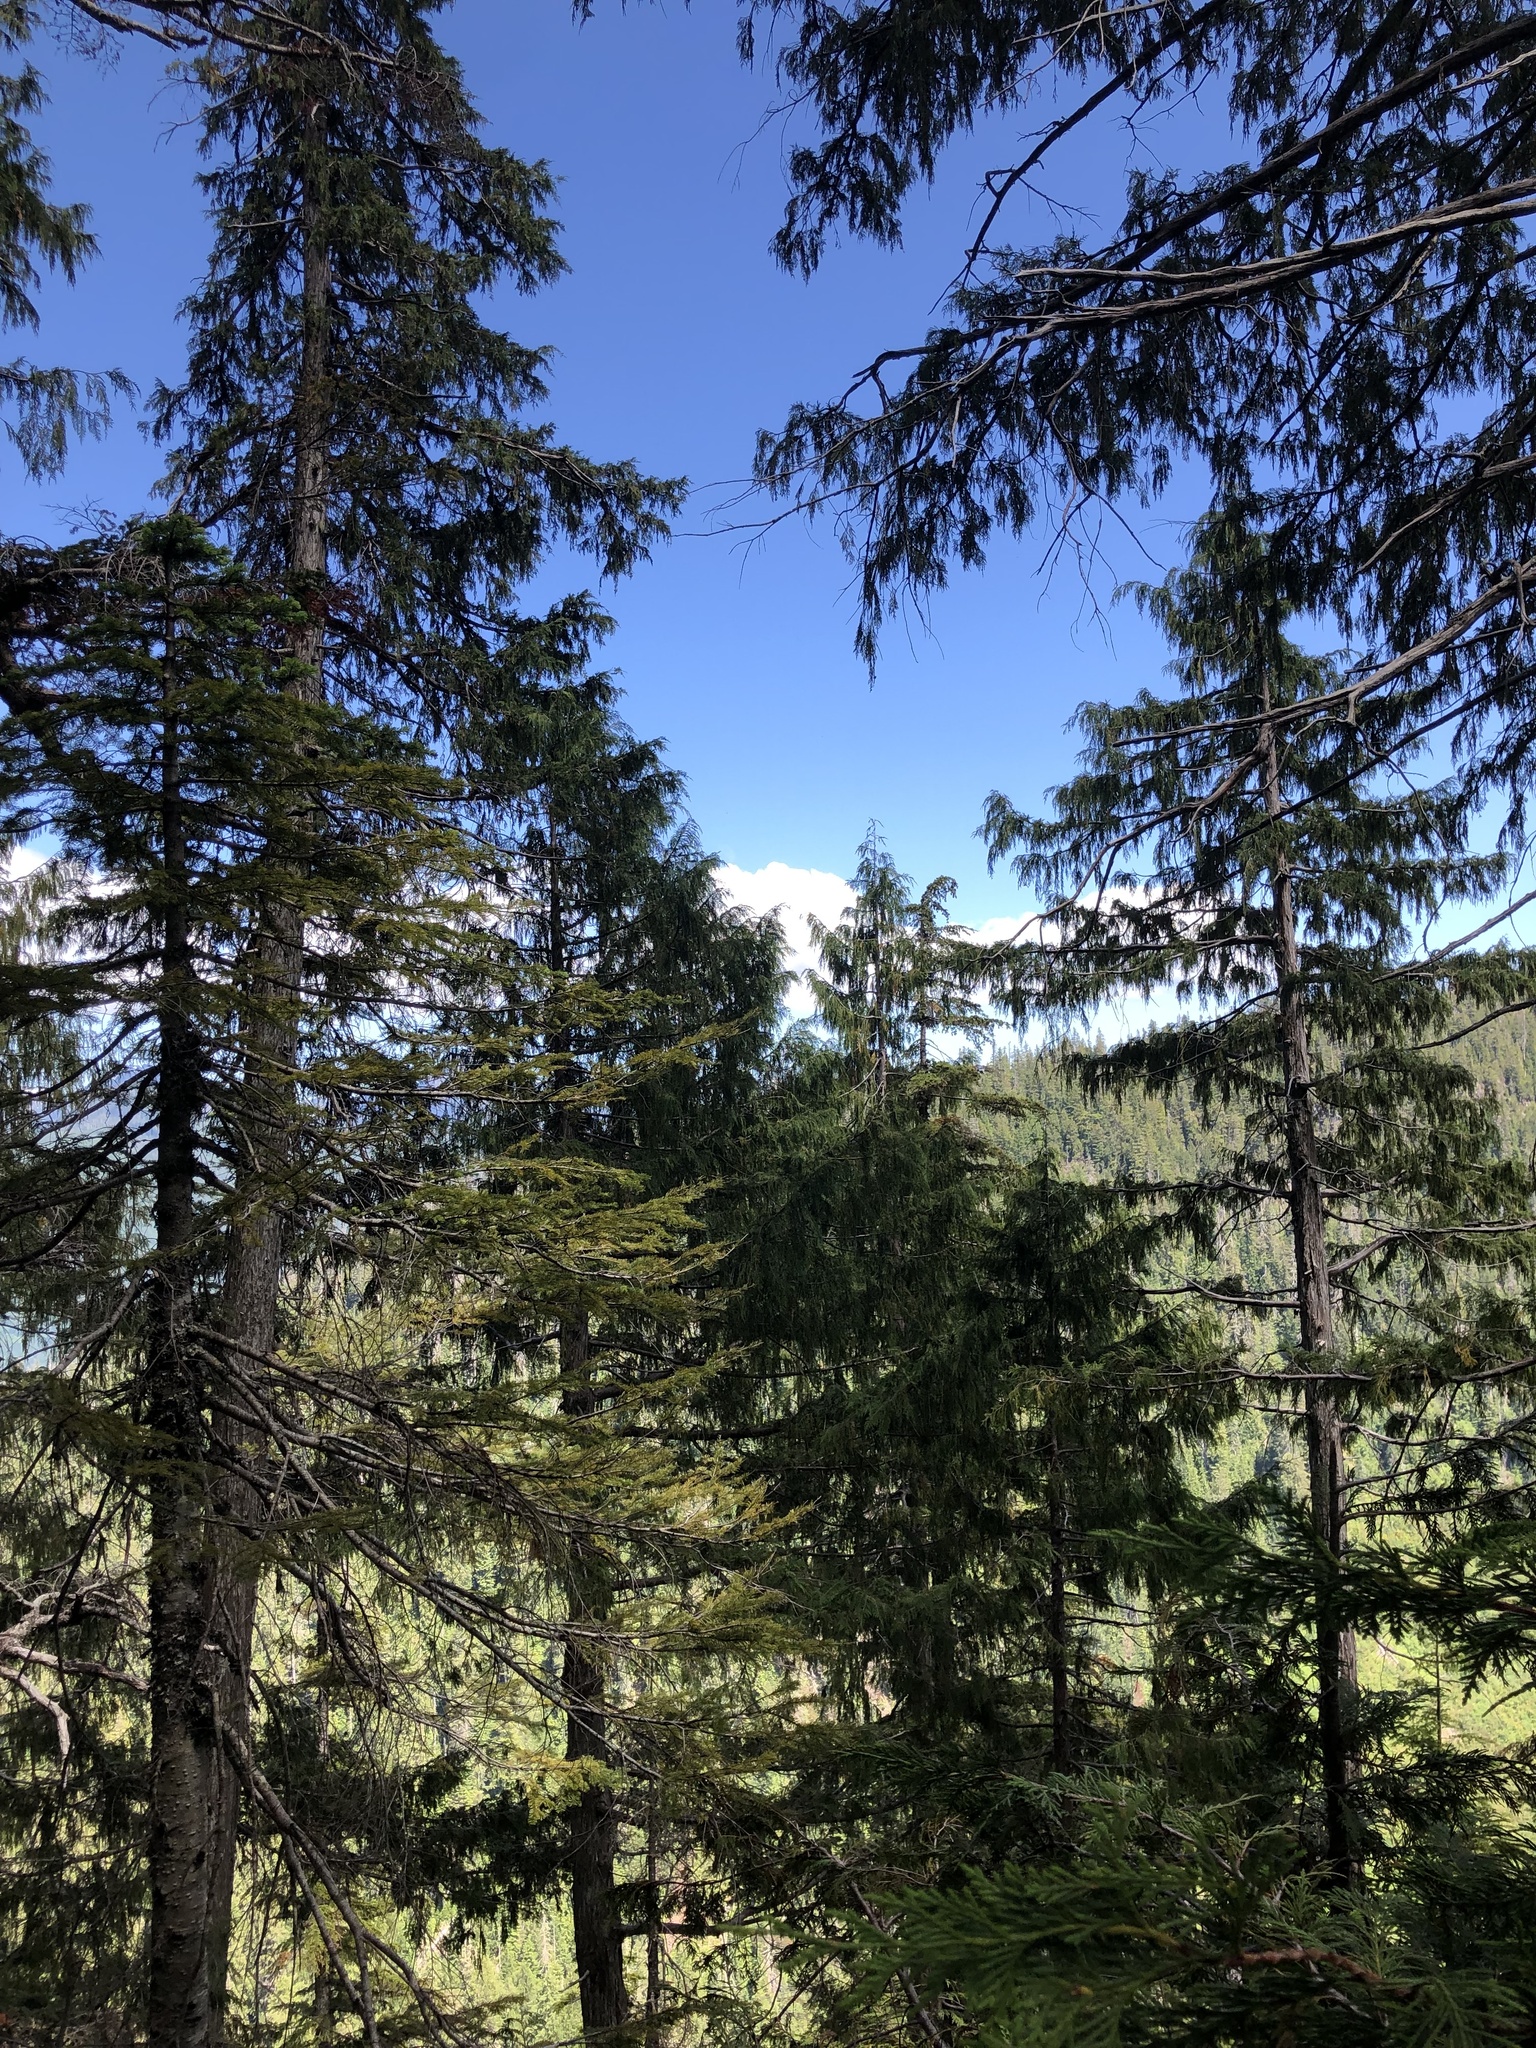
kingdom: Plantae
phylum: Tracheophyta
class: Pinopsida
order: Pinales
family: Cupressaceae
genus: Xanthocyparis
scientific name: Xanthocyparis nootkatensis
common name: Nootka cypress
